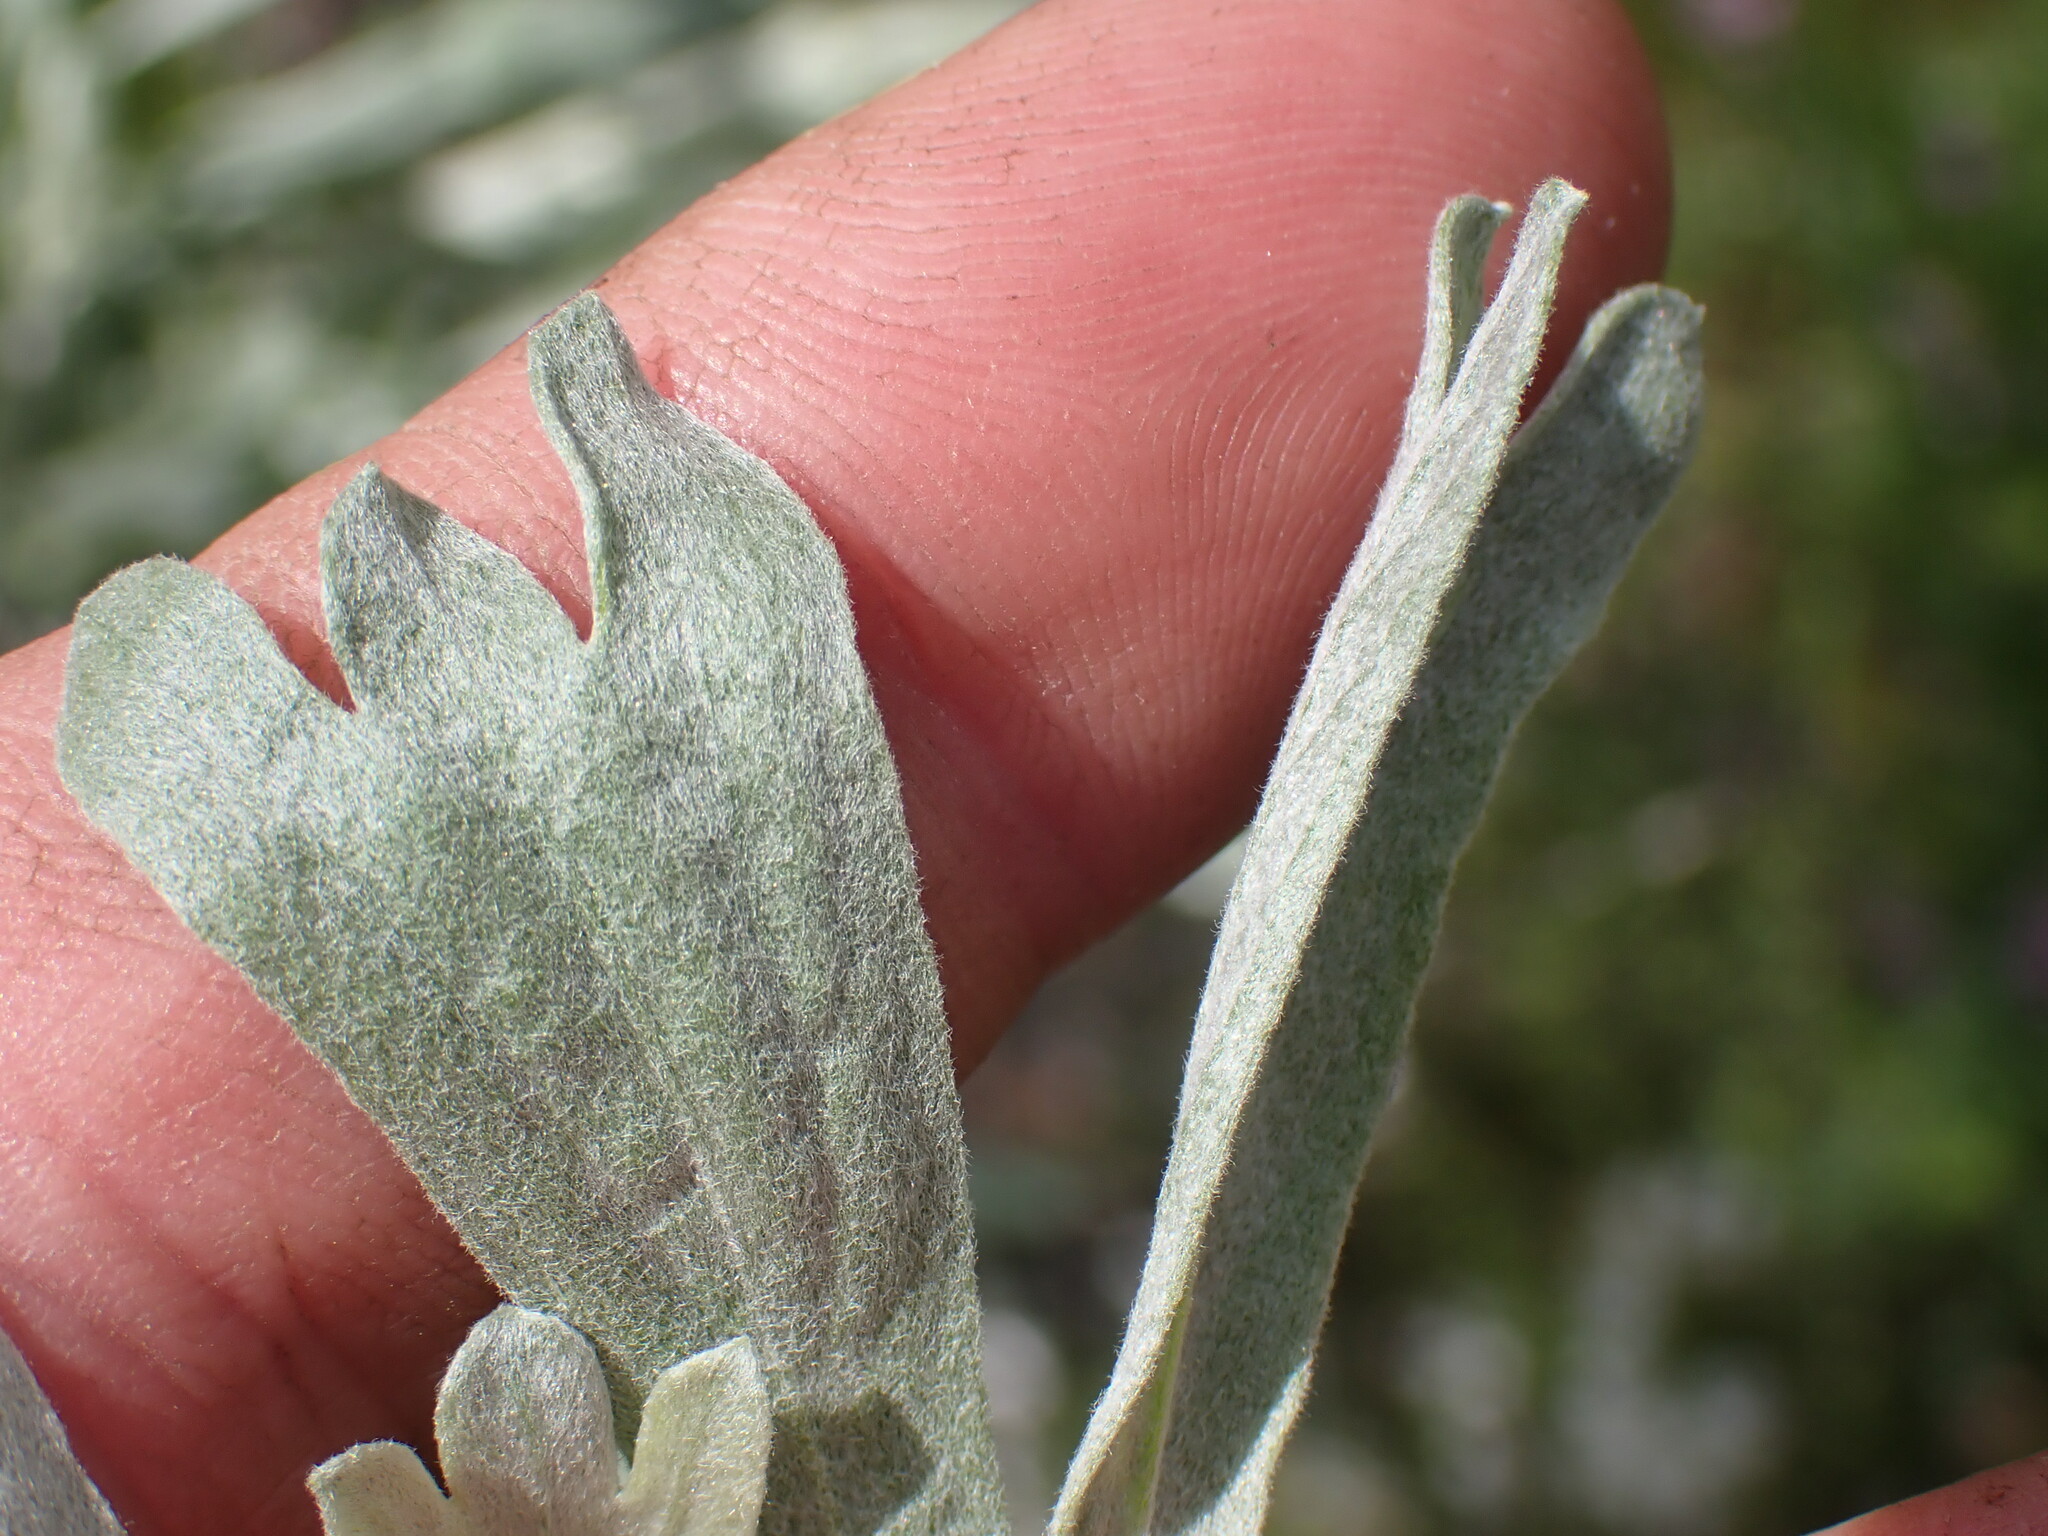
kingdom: Plantae
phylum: Tracheophyta
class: Magnoliopsida
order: Asterales
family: Asteraceae
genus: Artemisia
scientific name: Artemisia tridentata
